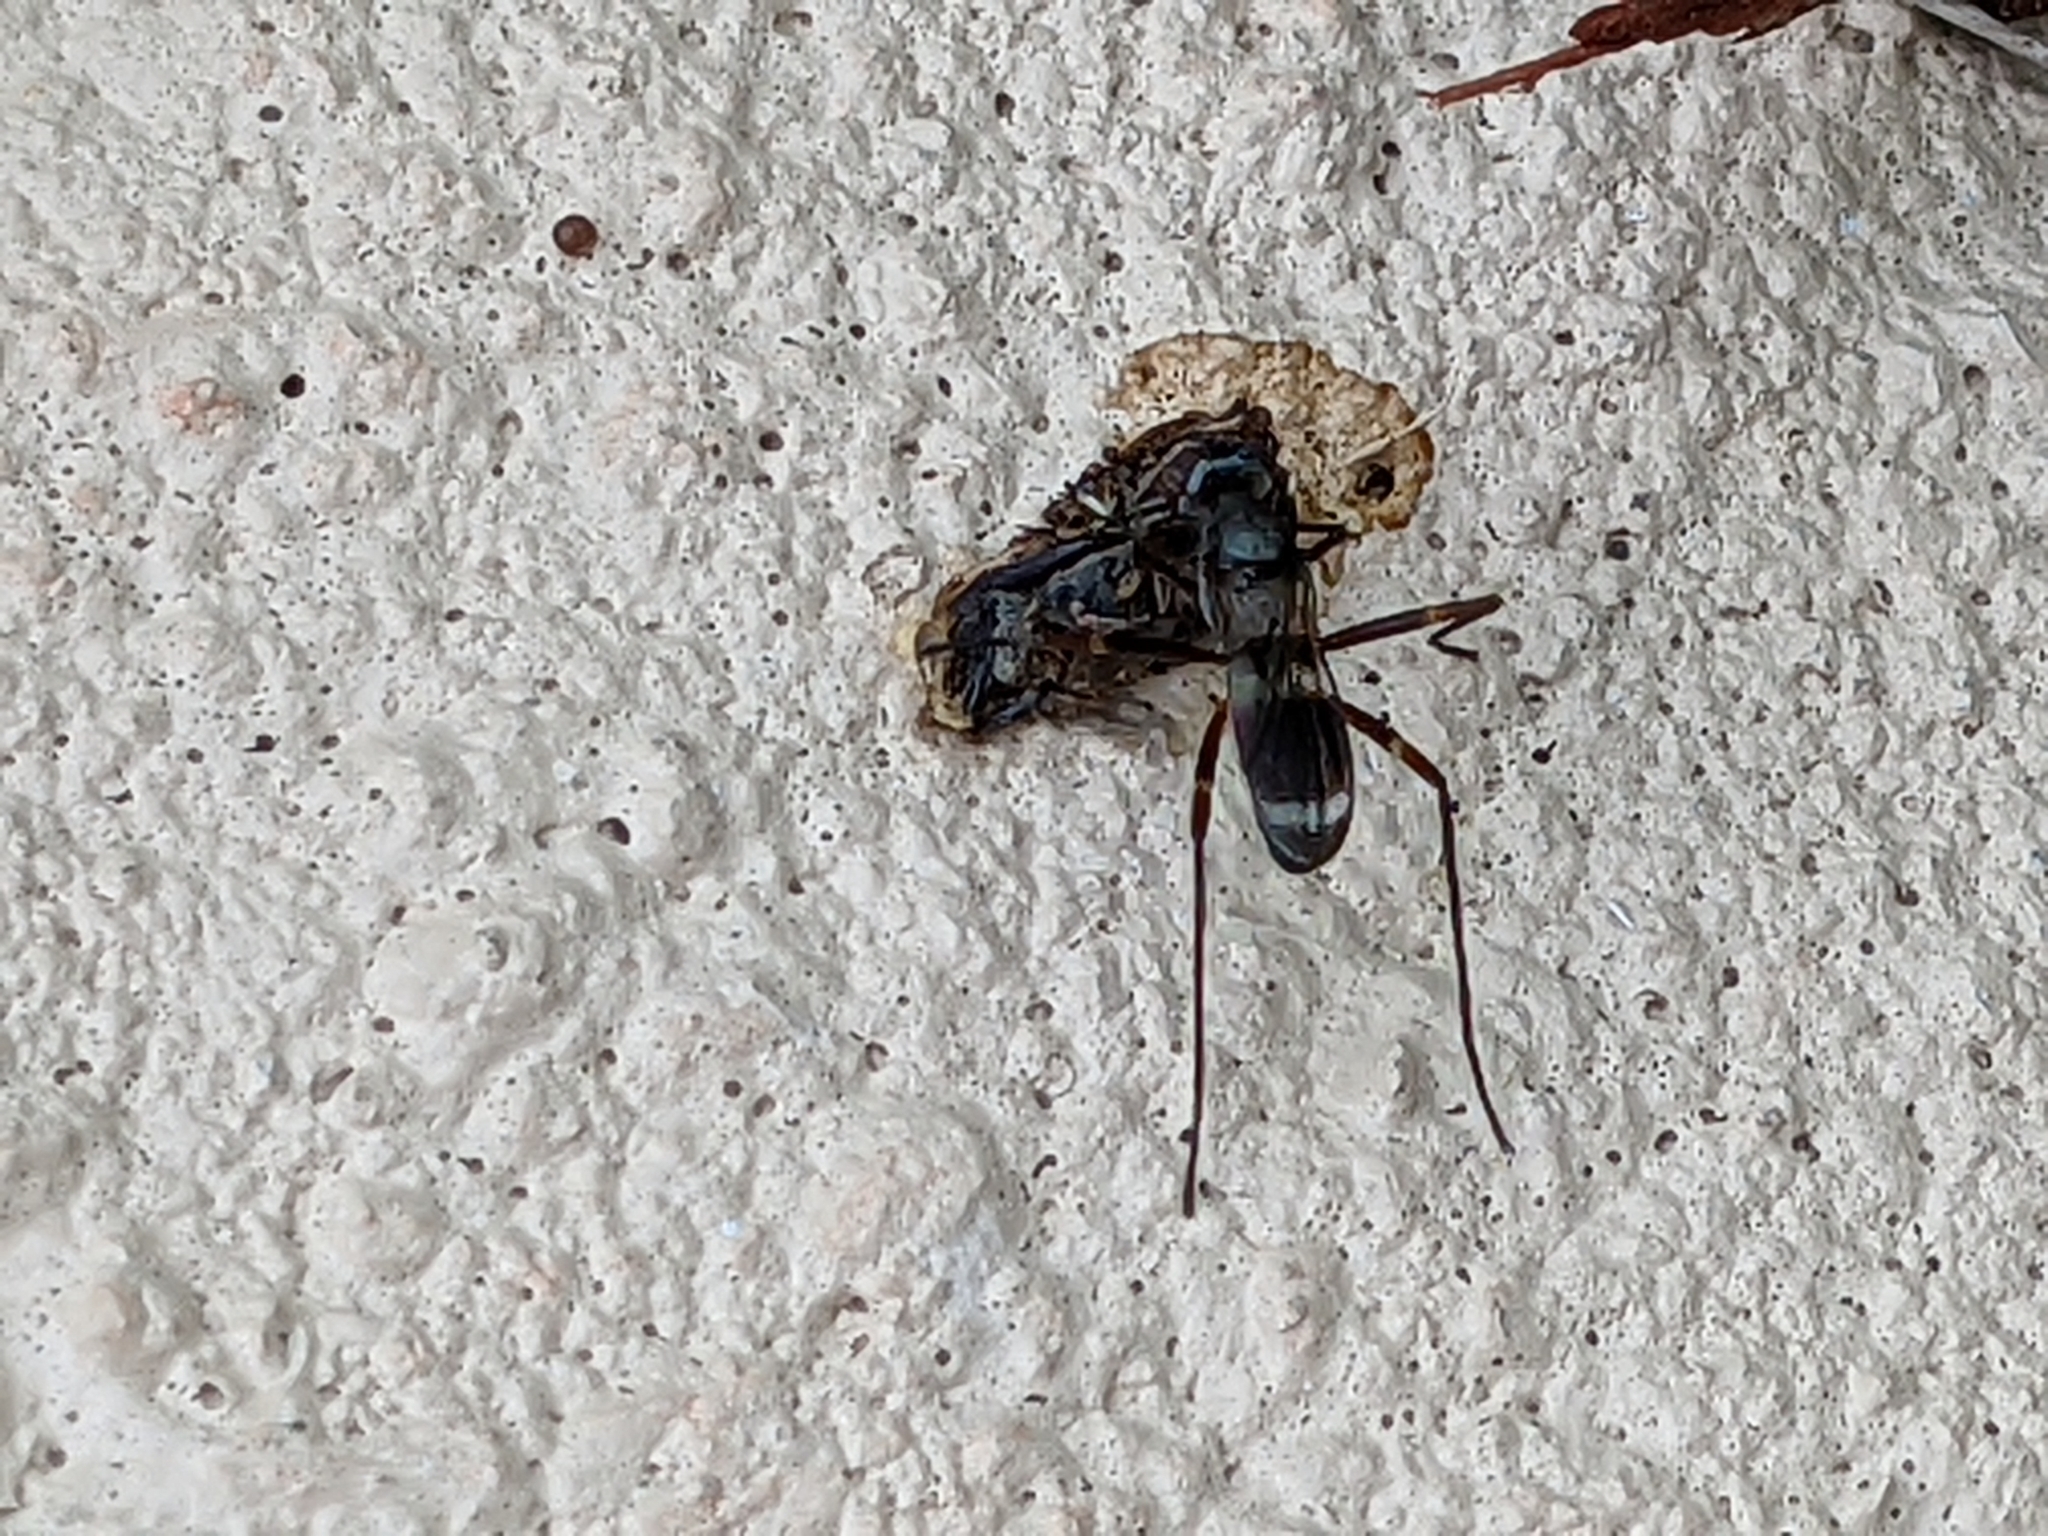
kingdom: Animalia
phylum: Arthropoda
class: Insecta
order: Diptera
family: Micropezidae
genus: Taeniaptera
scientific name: Taeniaptera trivittata
